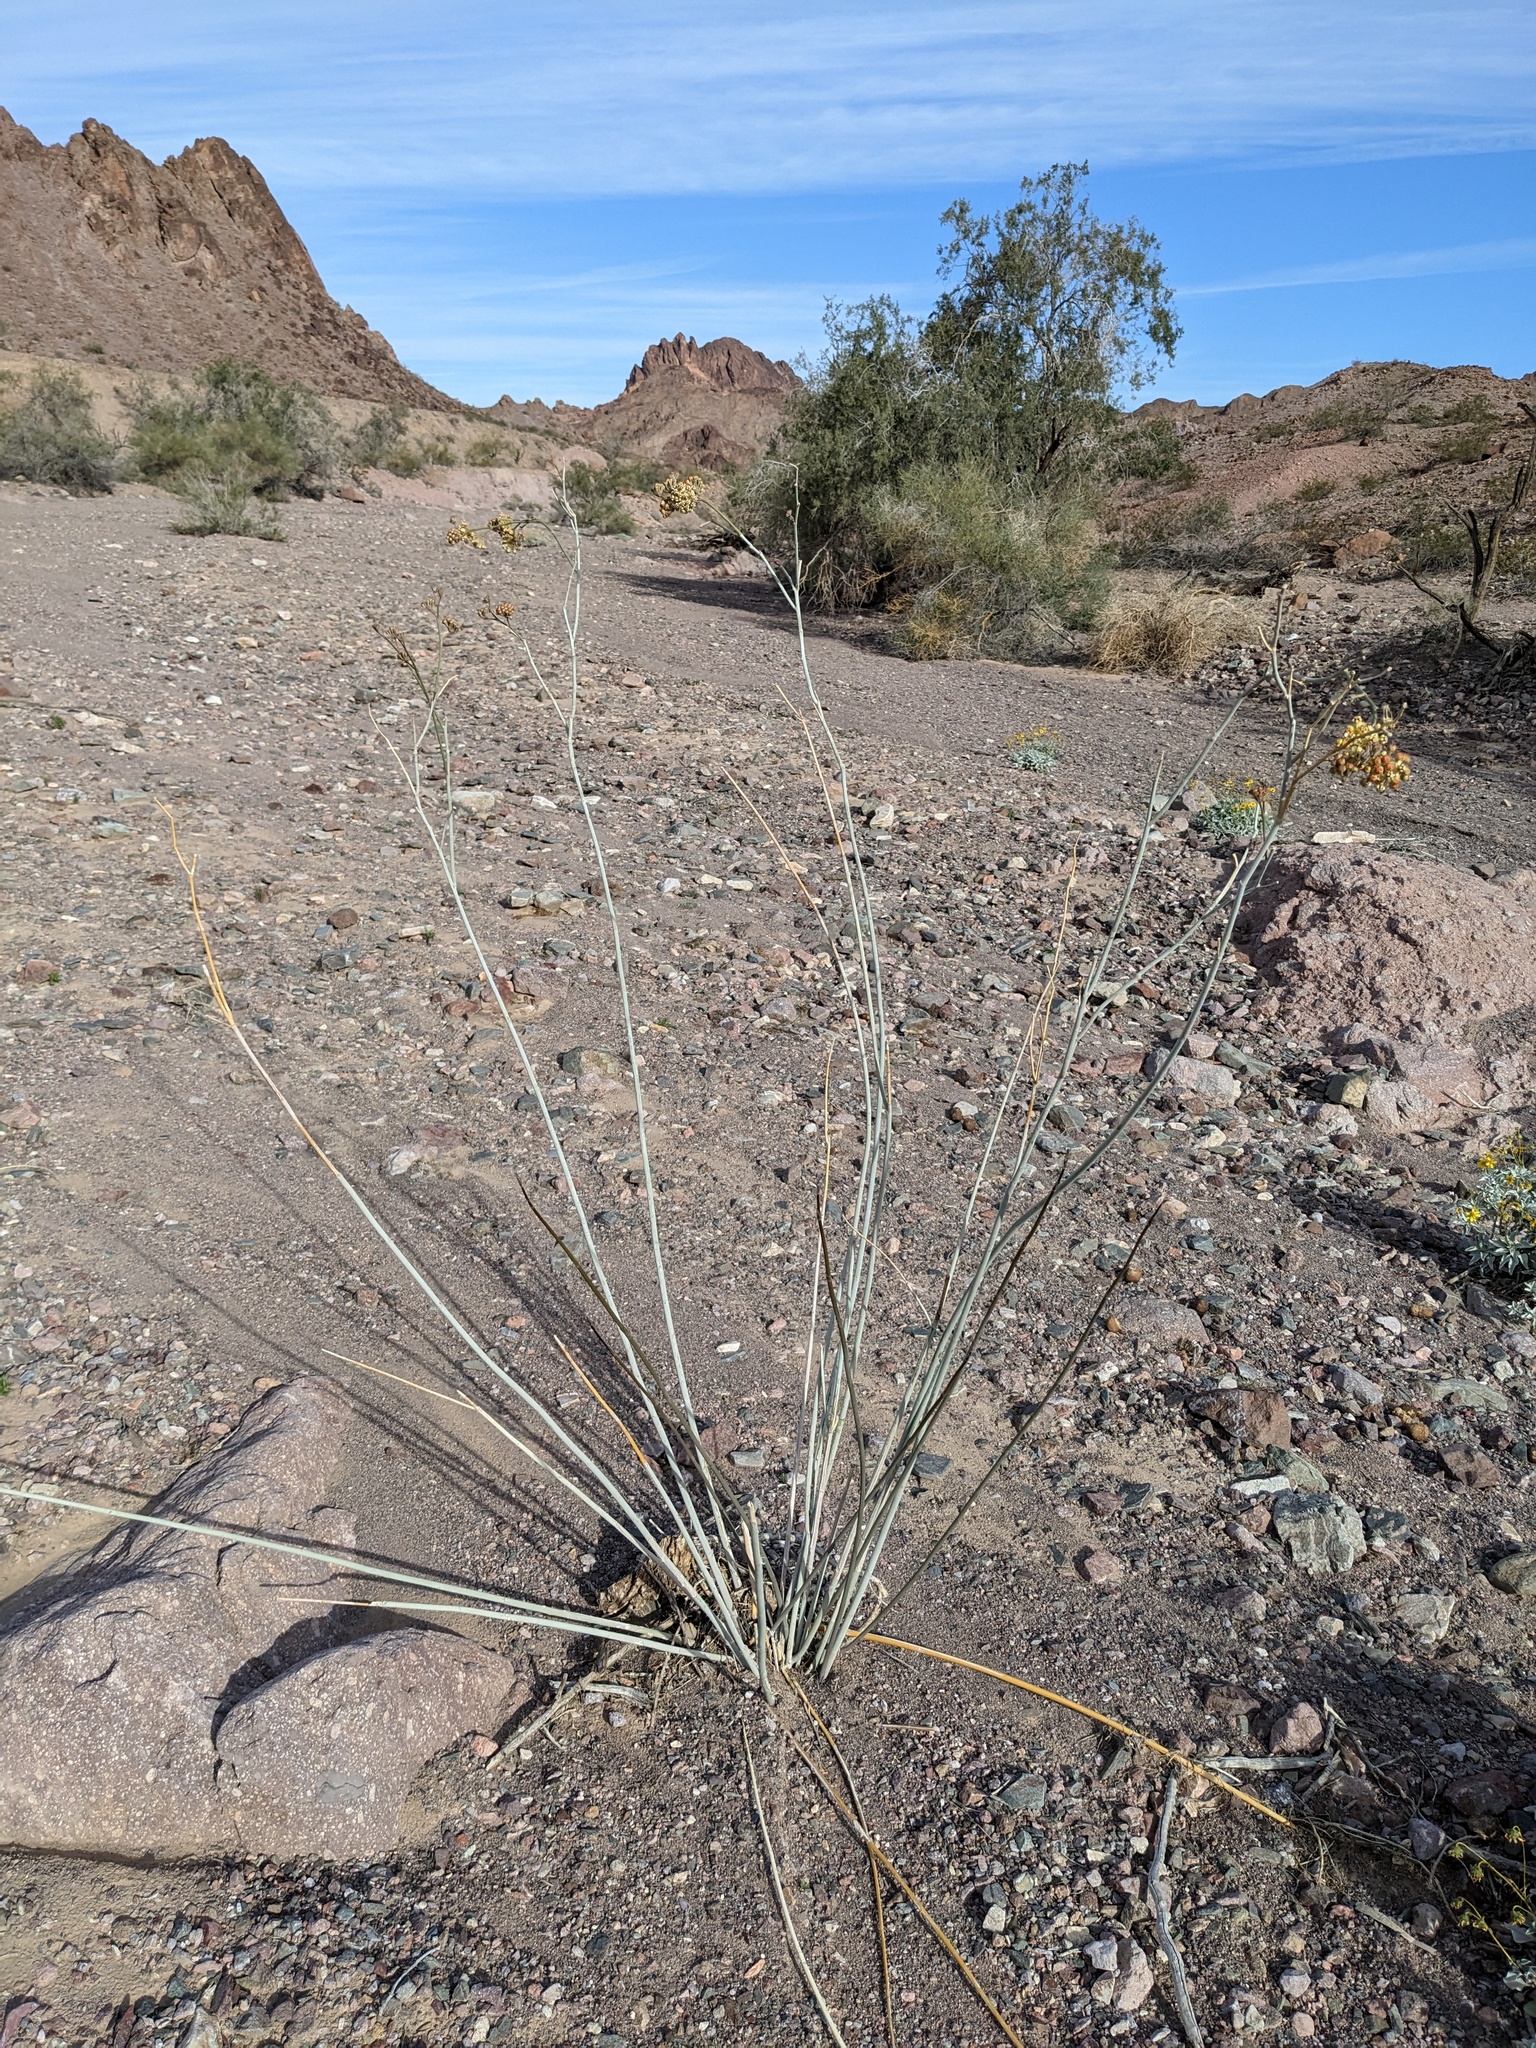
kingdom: Plantae
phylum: Tracheophyta
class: Magnoliopsida
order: Gentianales
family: Apocynaceae
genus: Asclepias
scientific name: Asclepias albicans
